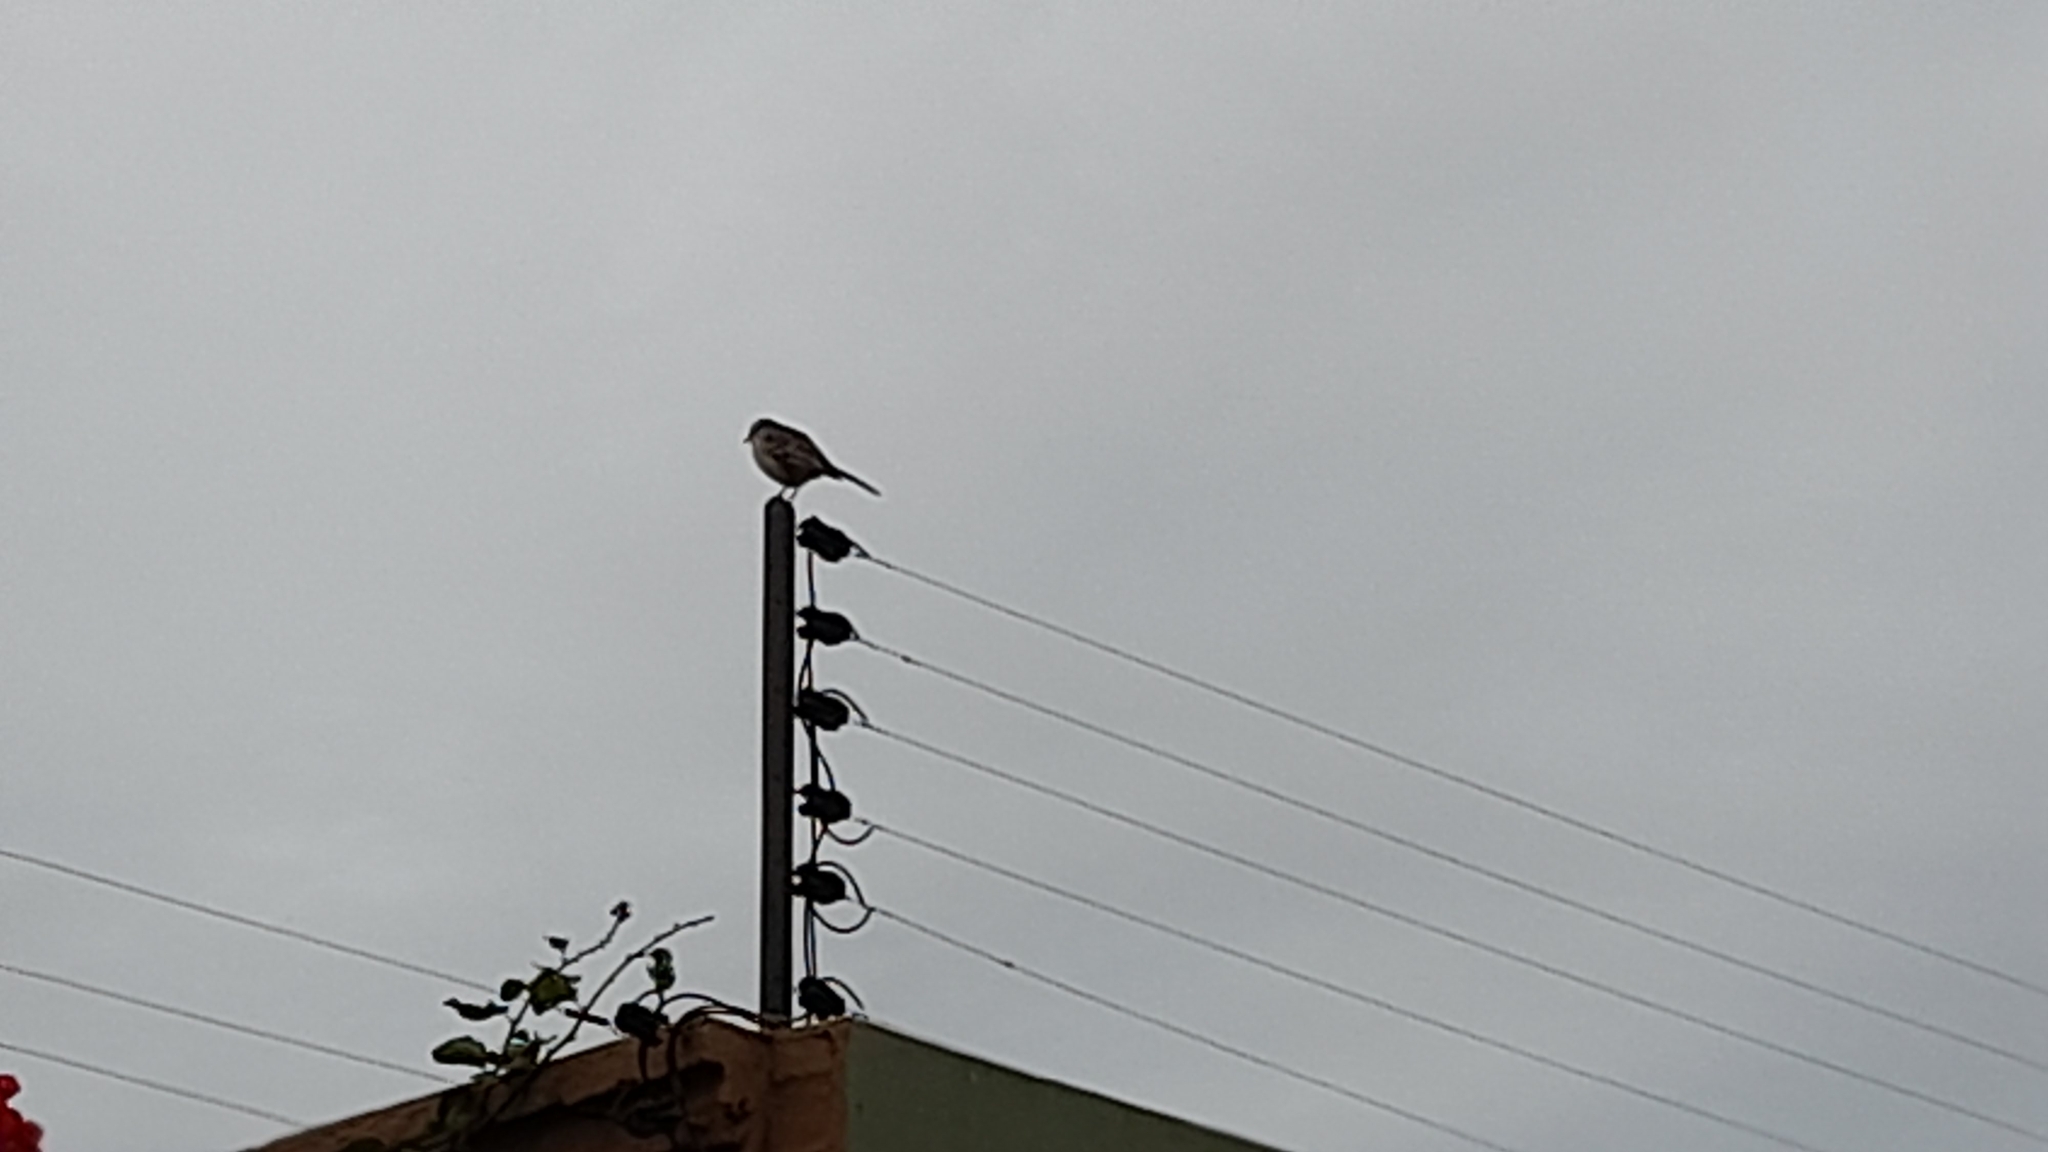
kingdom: Animalia
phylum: Chordata
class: Aves
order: Passeriformes
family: Mimidae
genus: Mimus
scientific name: Mimus saturninus
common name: Chalk-browed mockingbird
